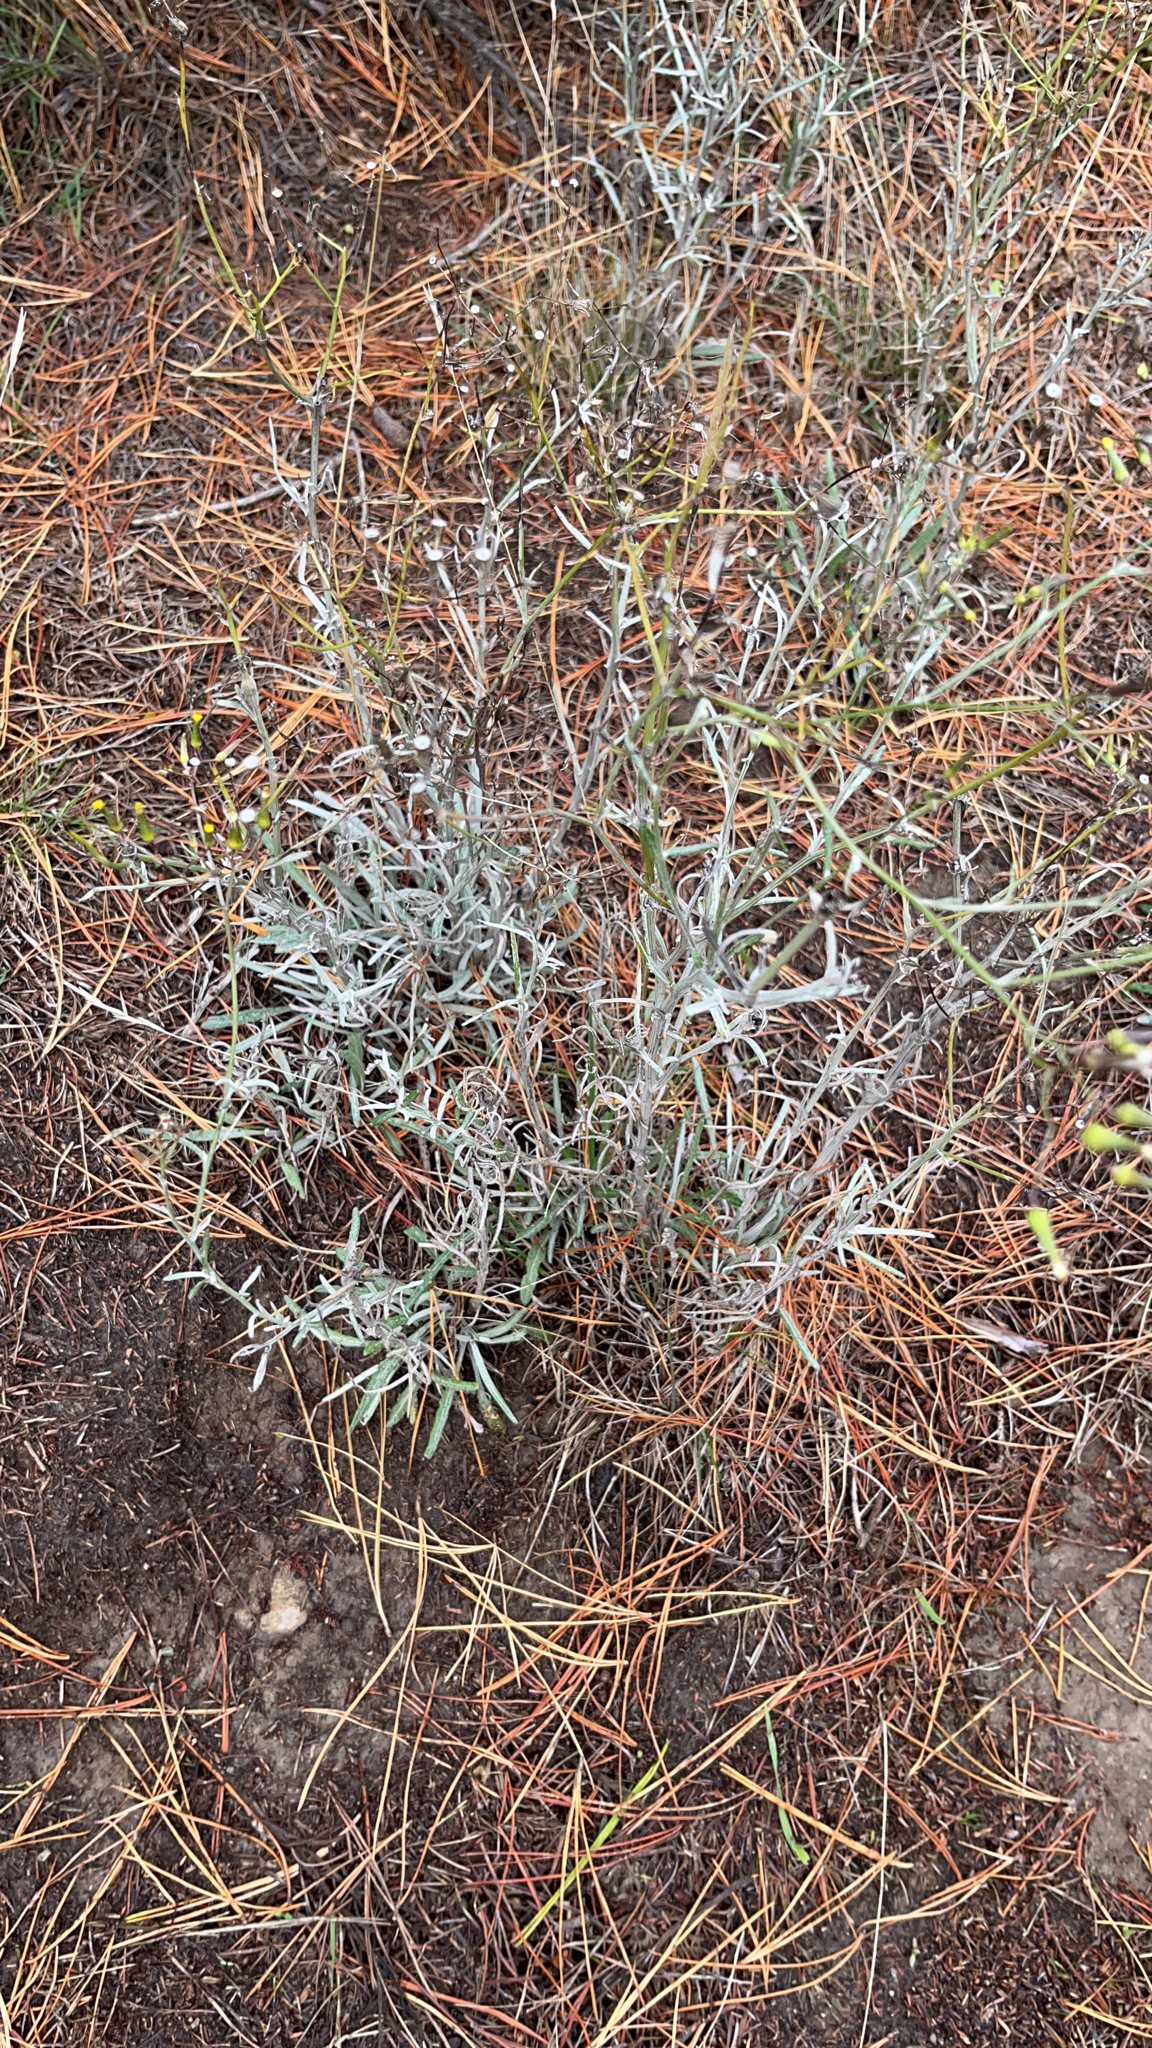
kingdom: Plantae
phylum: Tracheophyta
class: Magnoliopsida
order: Asterales
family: Asteraceae
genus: Senecio
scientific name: Senecio quadridentatus
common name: Cotton fireweed
